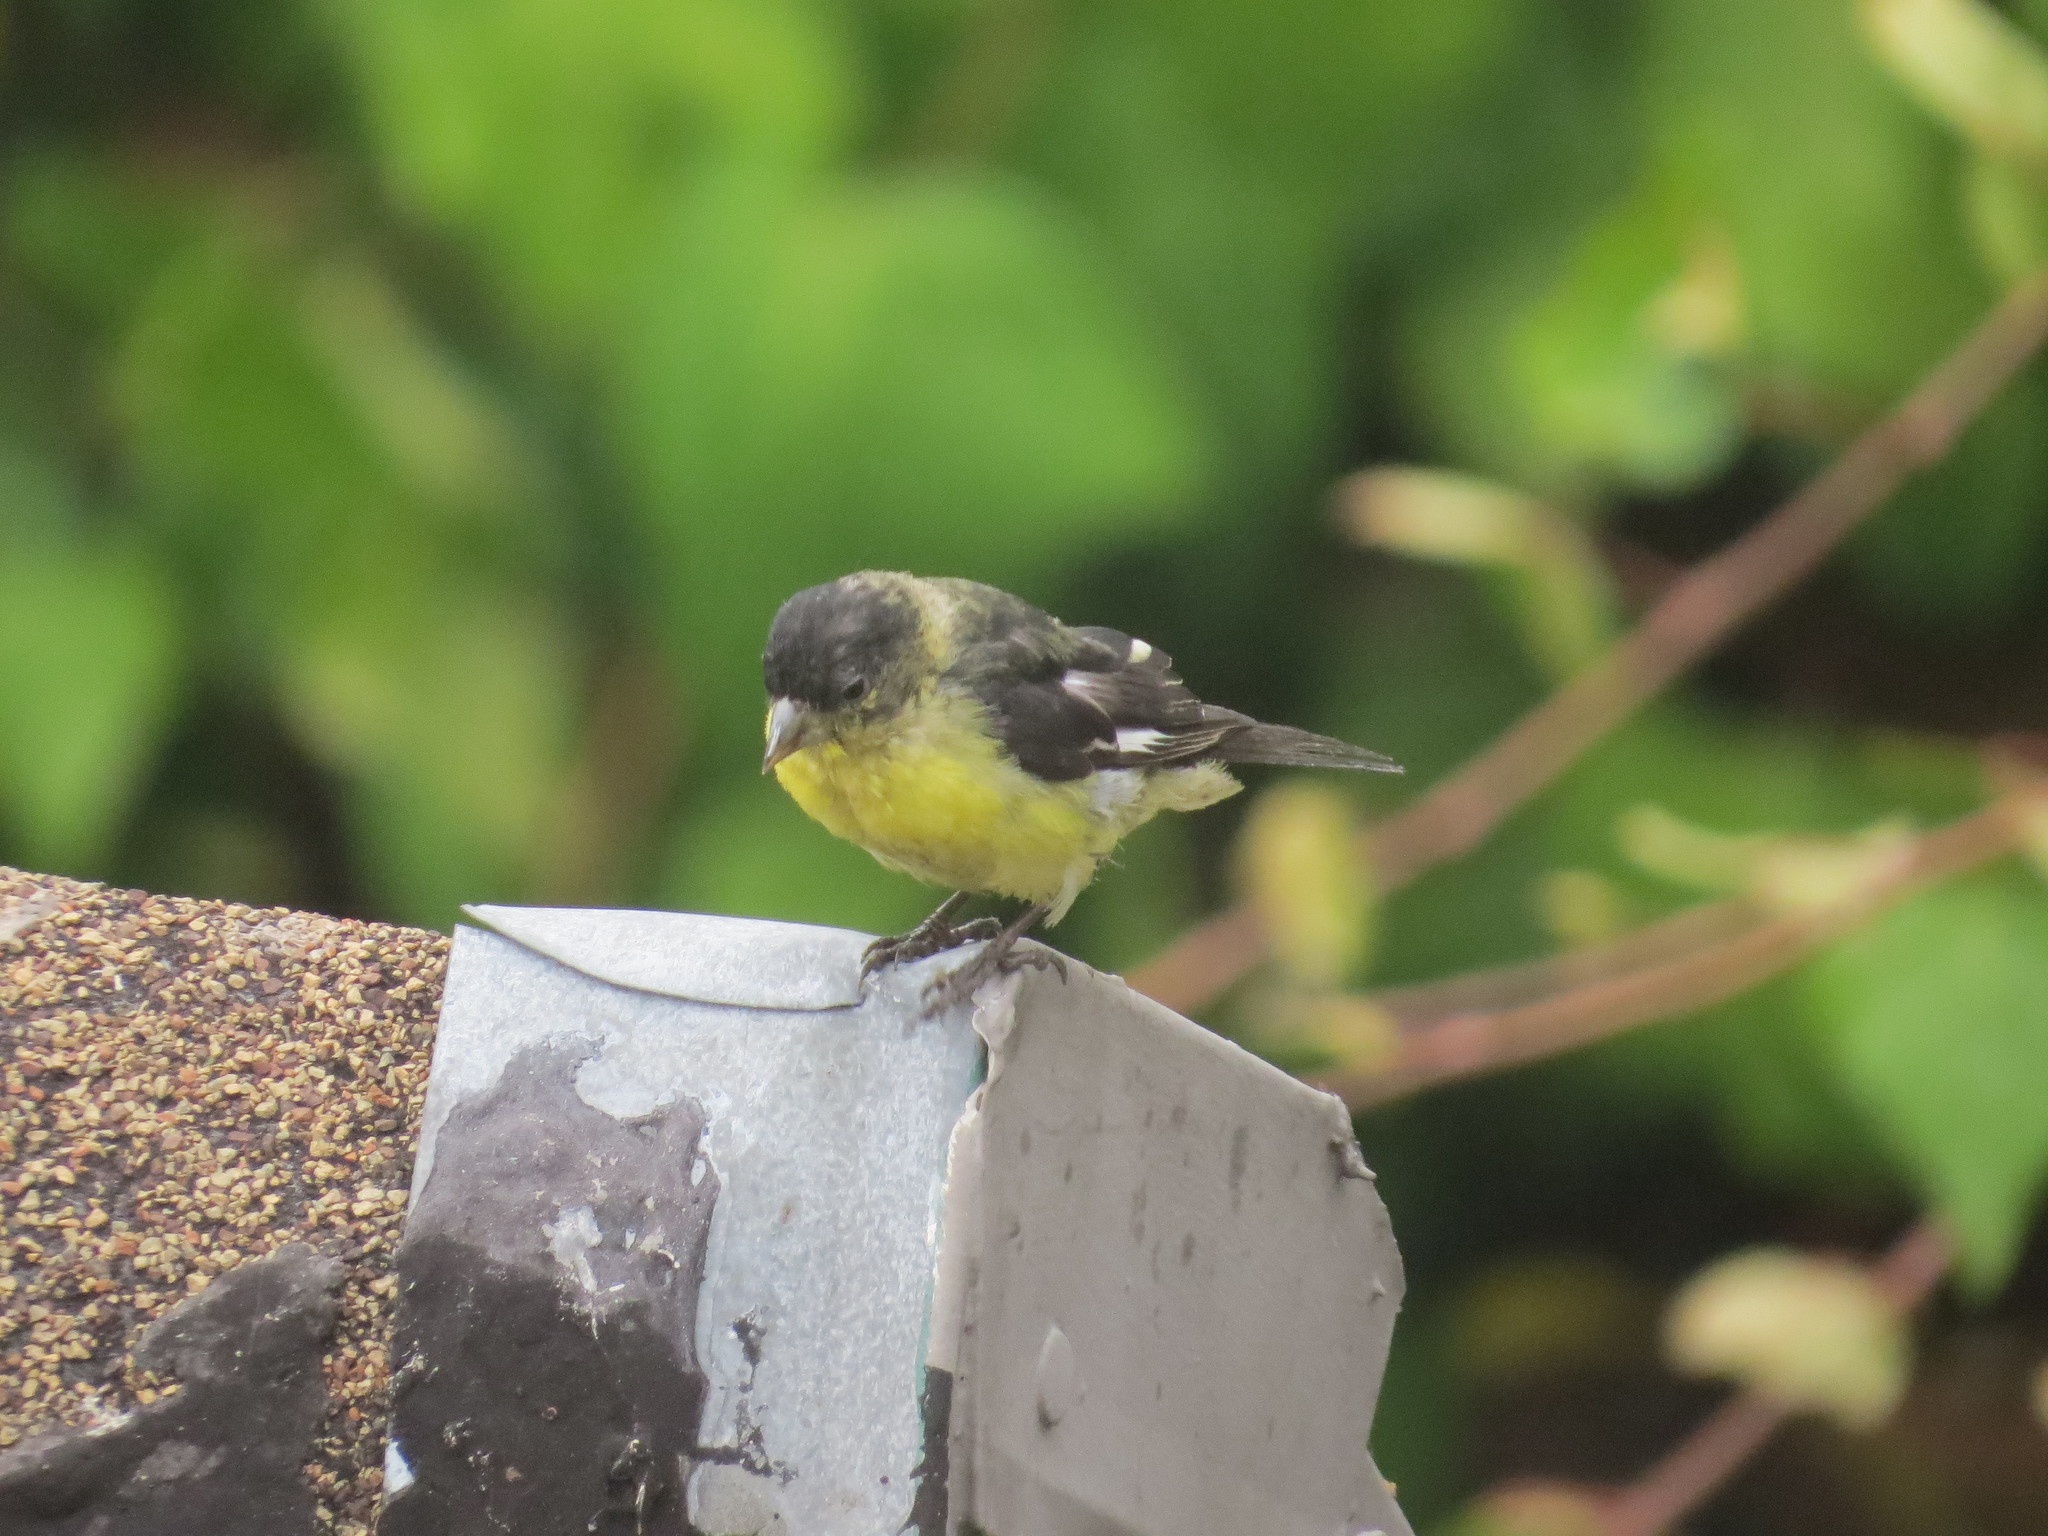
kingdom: Animalia
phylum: Chordata
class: Aves
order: Passeriformes
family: Fringillidae
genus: Spinus
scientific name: Spinus psaltria
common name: Lesser goldfinch
